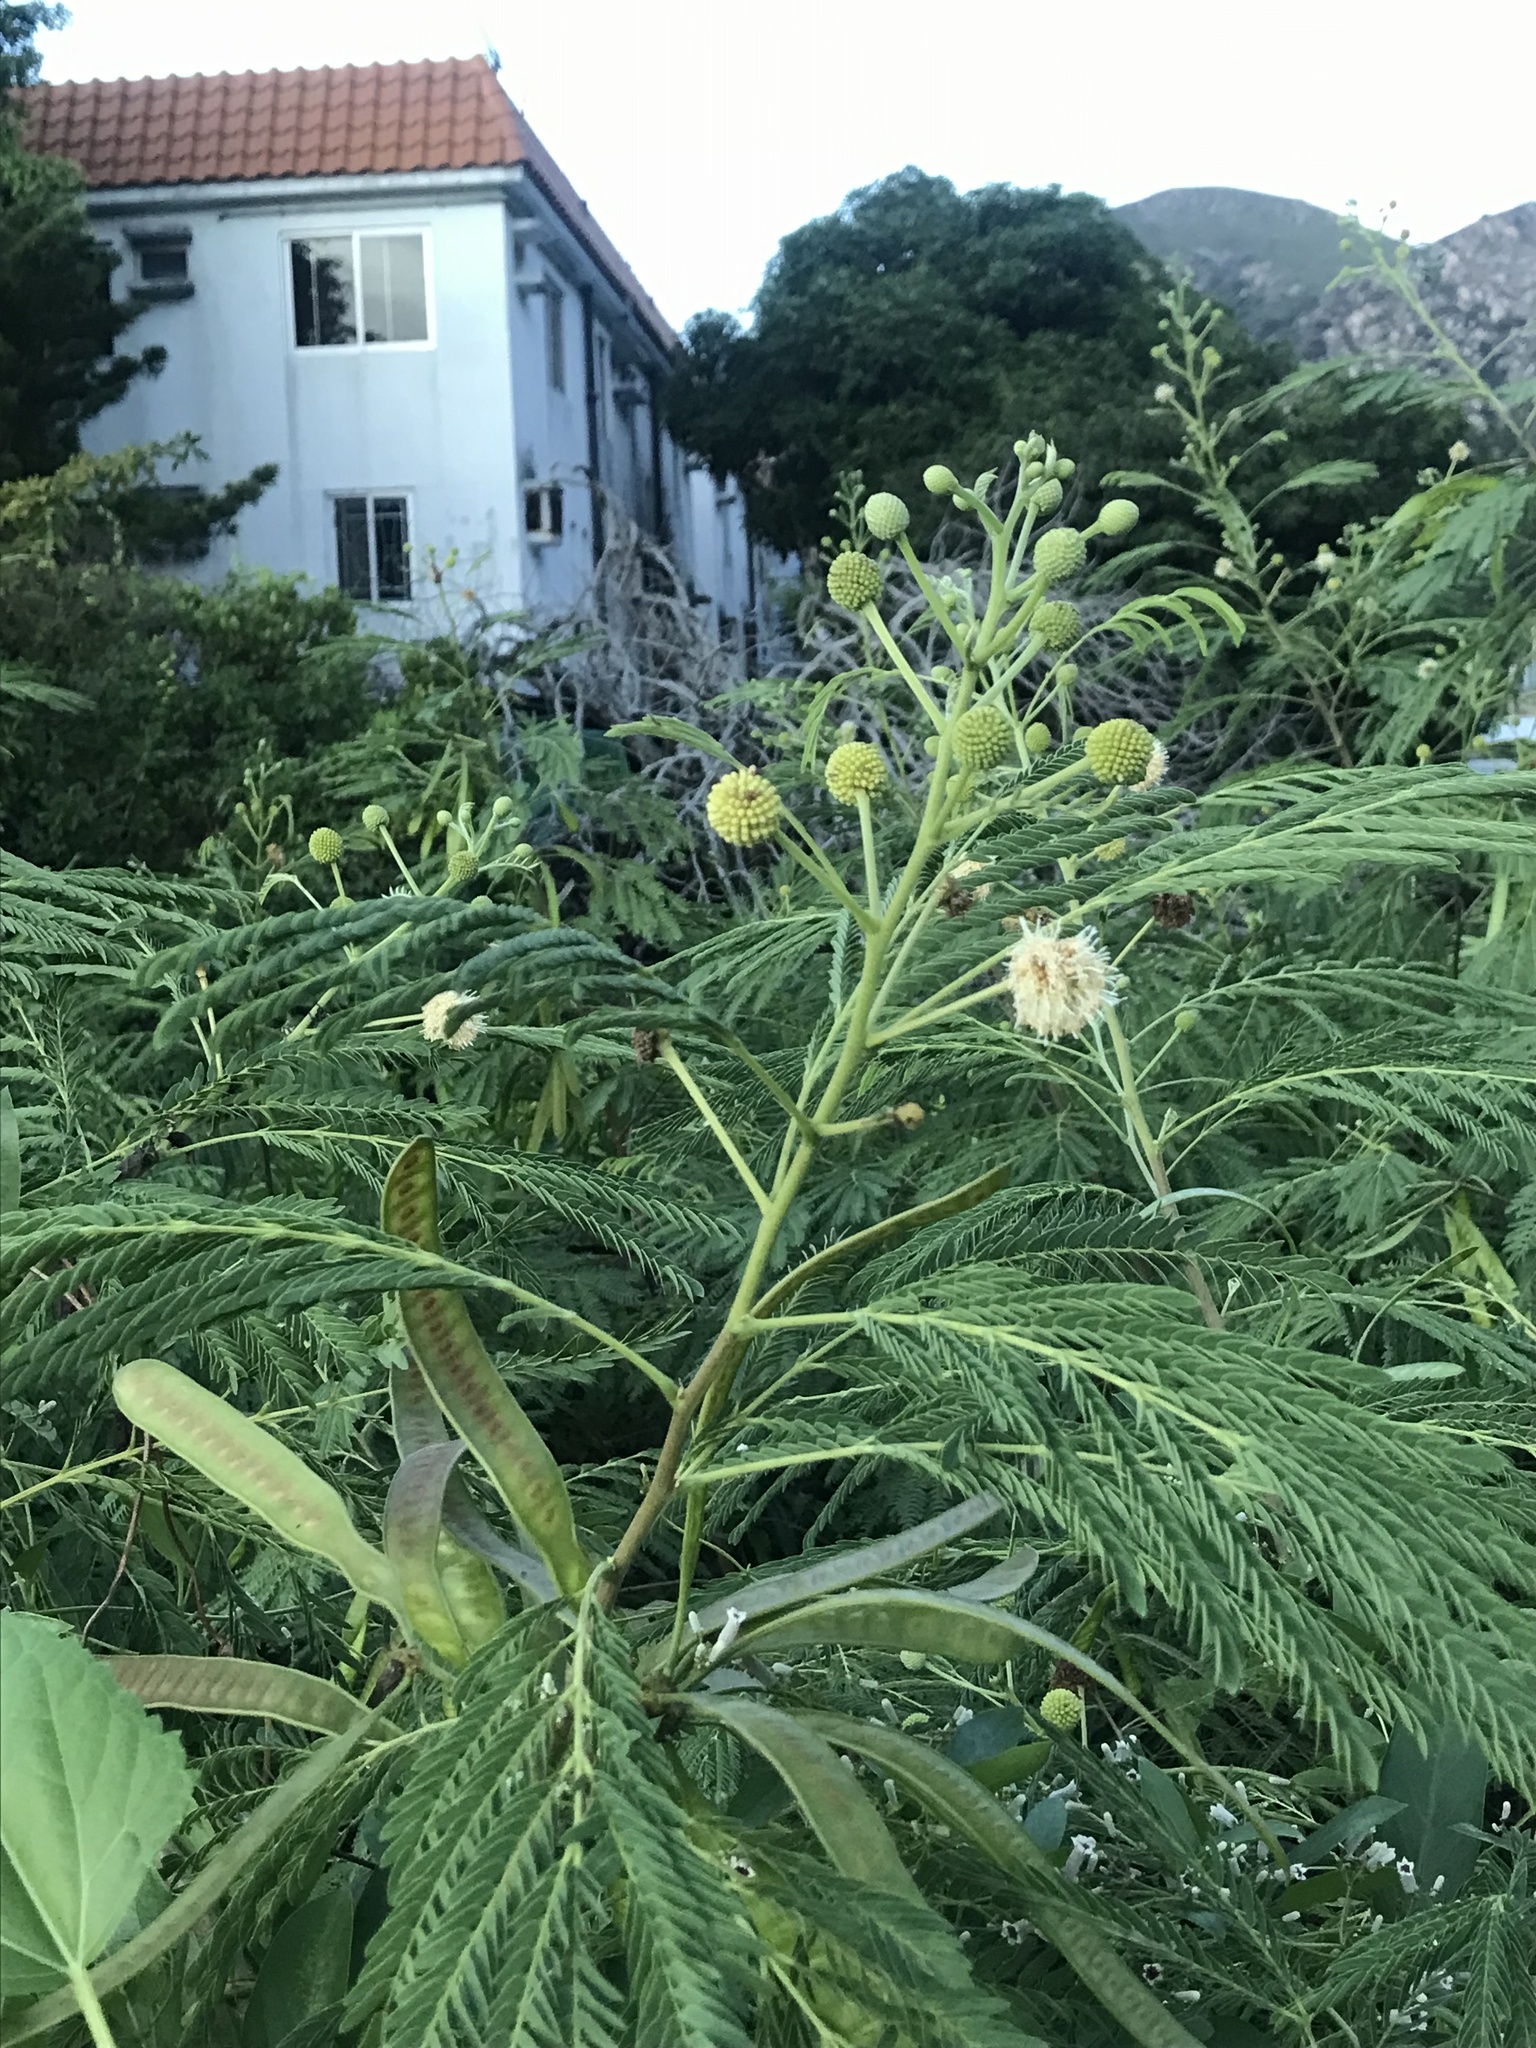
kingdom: Plantae
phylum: Tracheophyta
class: Magnoliopsida
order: Fabales
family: Fabaceae
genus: Leucaena
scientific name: Leucaena leucocephala
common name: White leadtree
